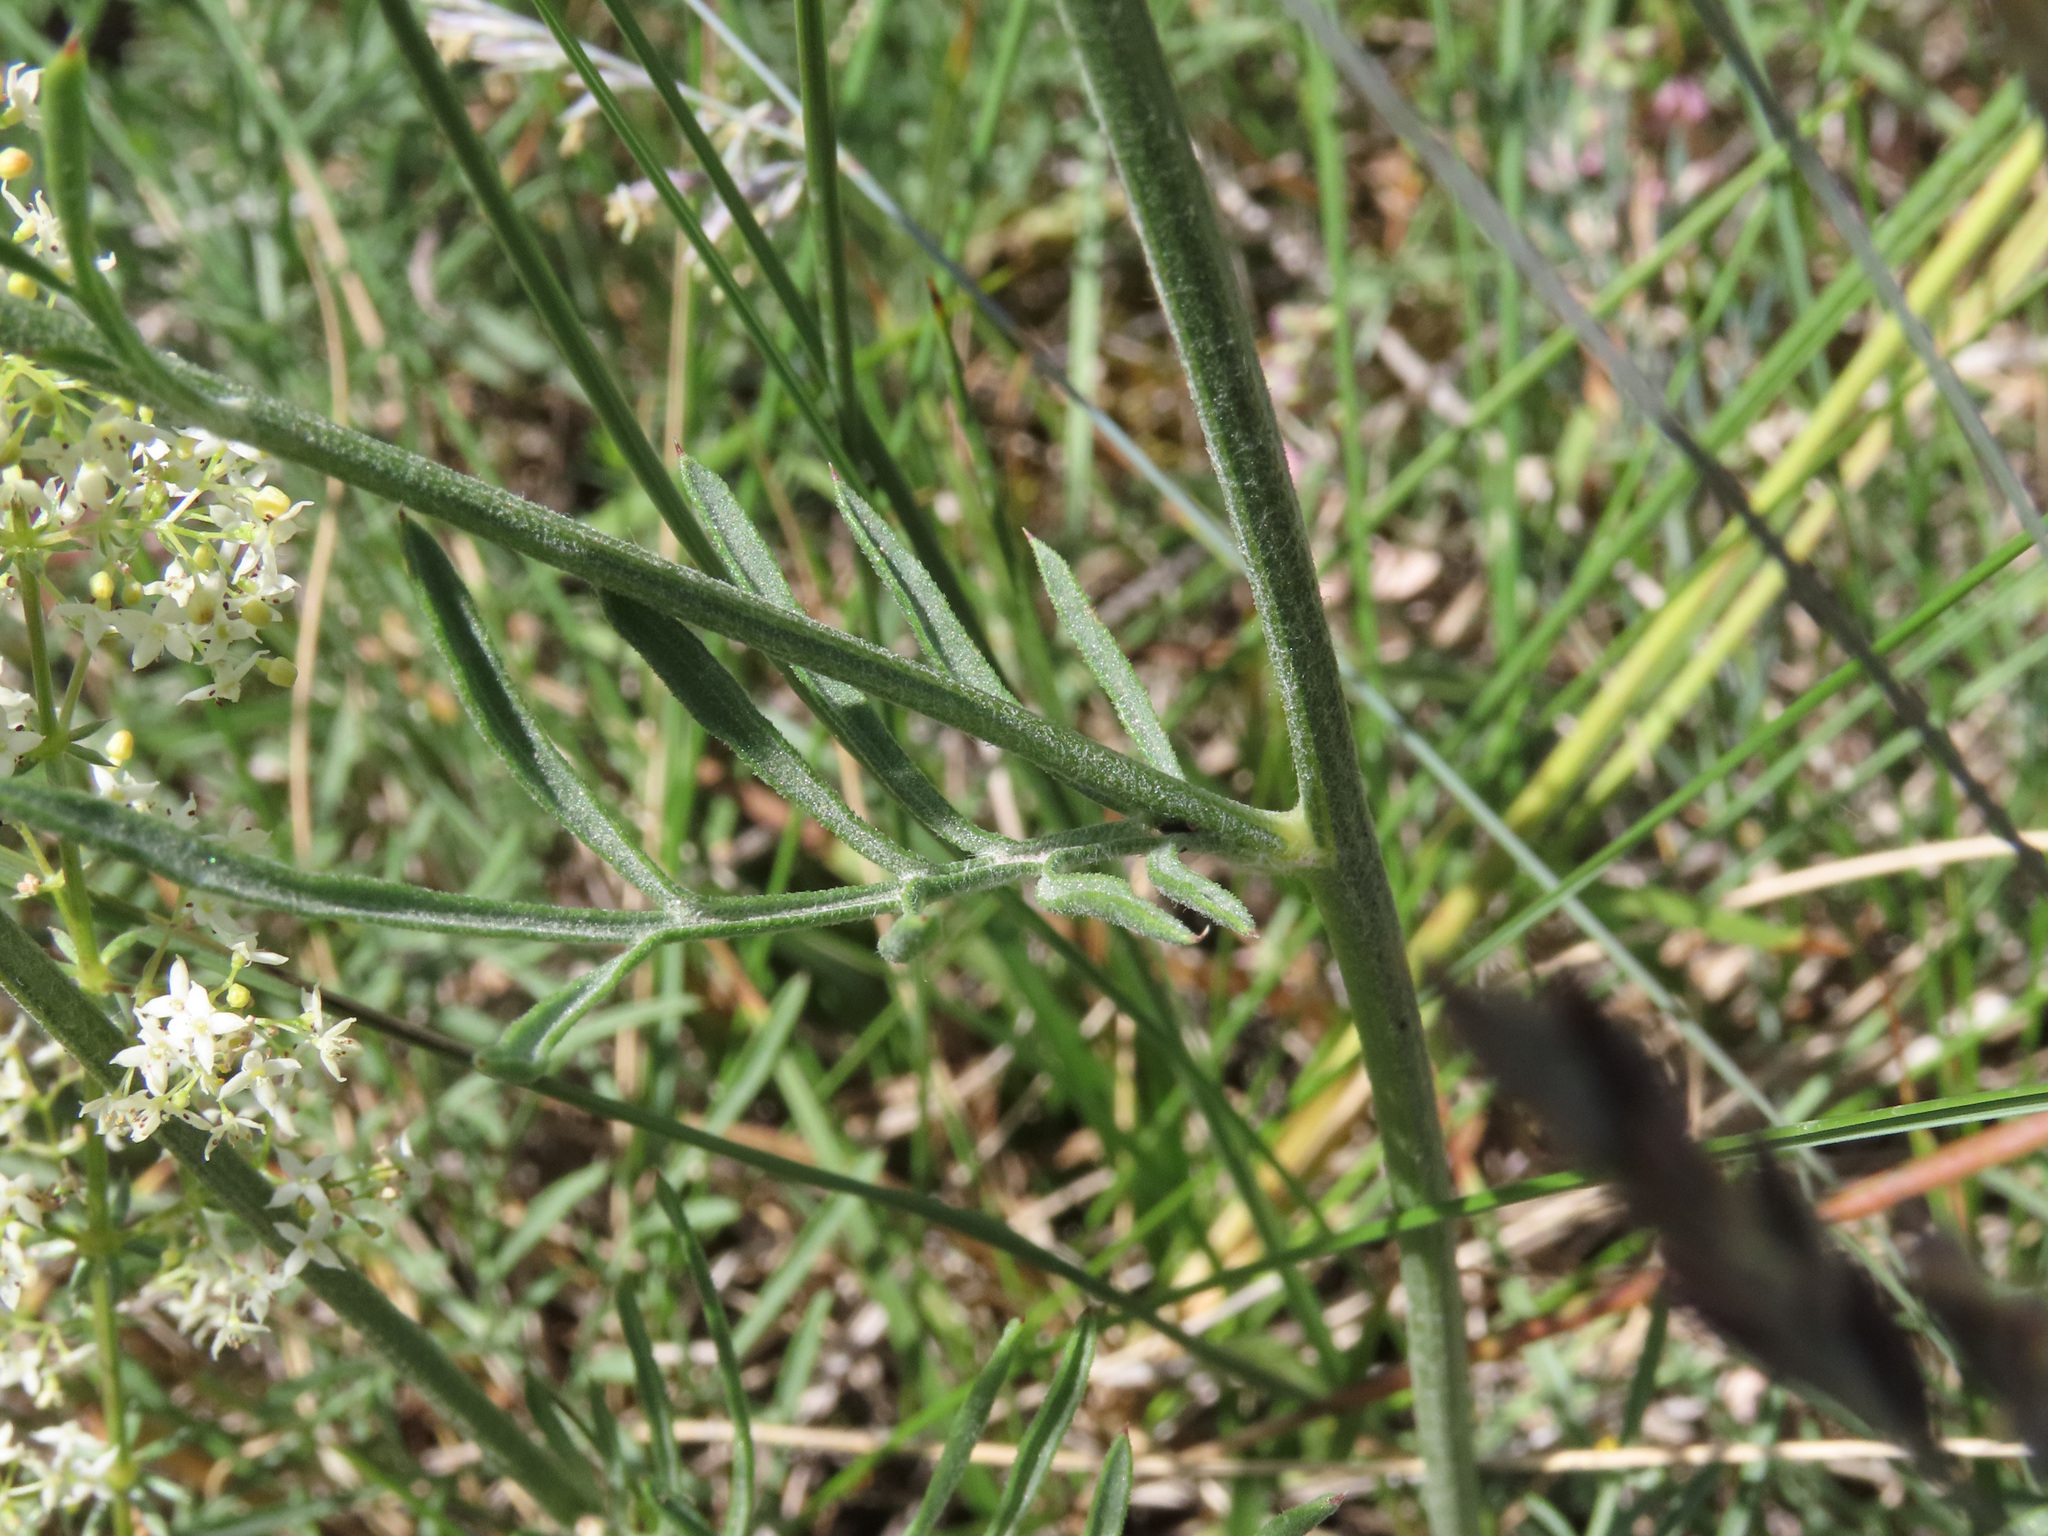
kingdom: Plantae
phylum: Tracheophyta
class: Magnoliopsida
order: Asterales
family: Asteraceae
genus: Centaurea
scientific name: Centaurea arachnoidea
